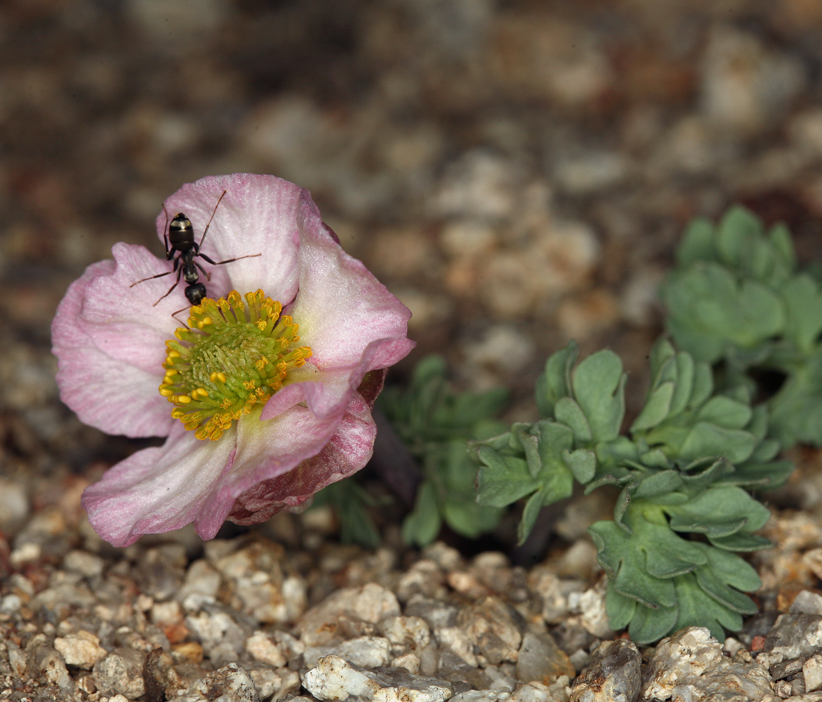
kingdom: Plantae
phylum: Tracheophyta
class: Magnoliopsida
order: Ranunculales
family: Ranunculaceae
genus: Beckwithia
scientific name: Beckwithia andersonii
